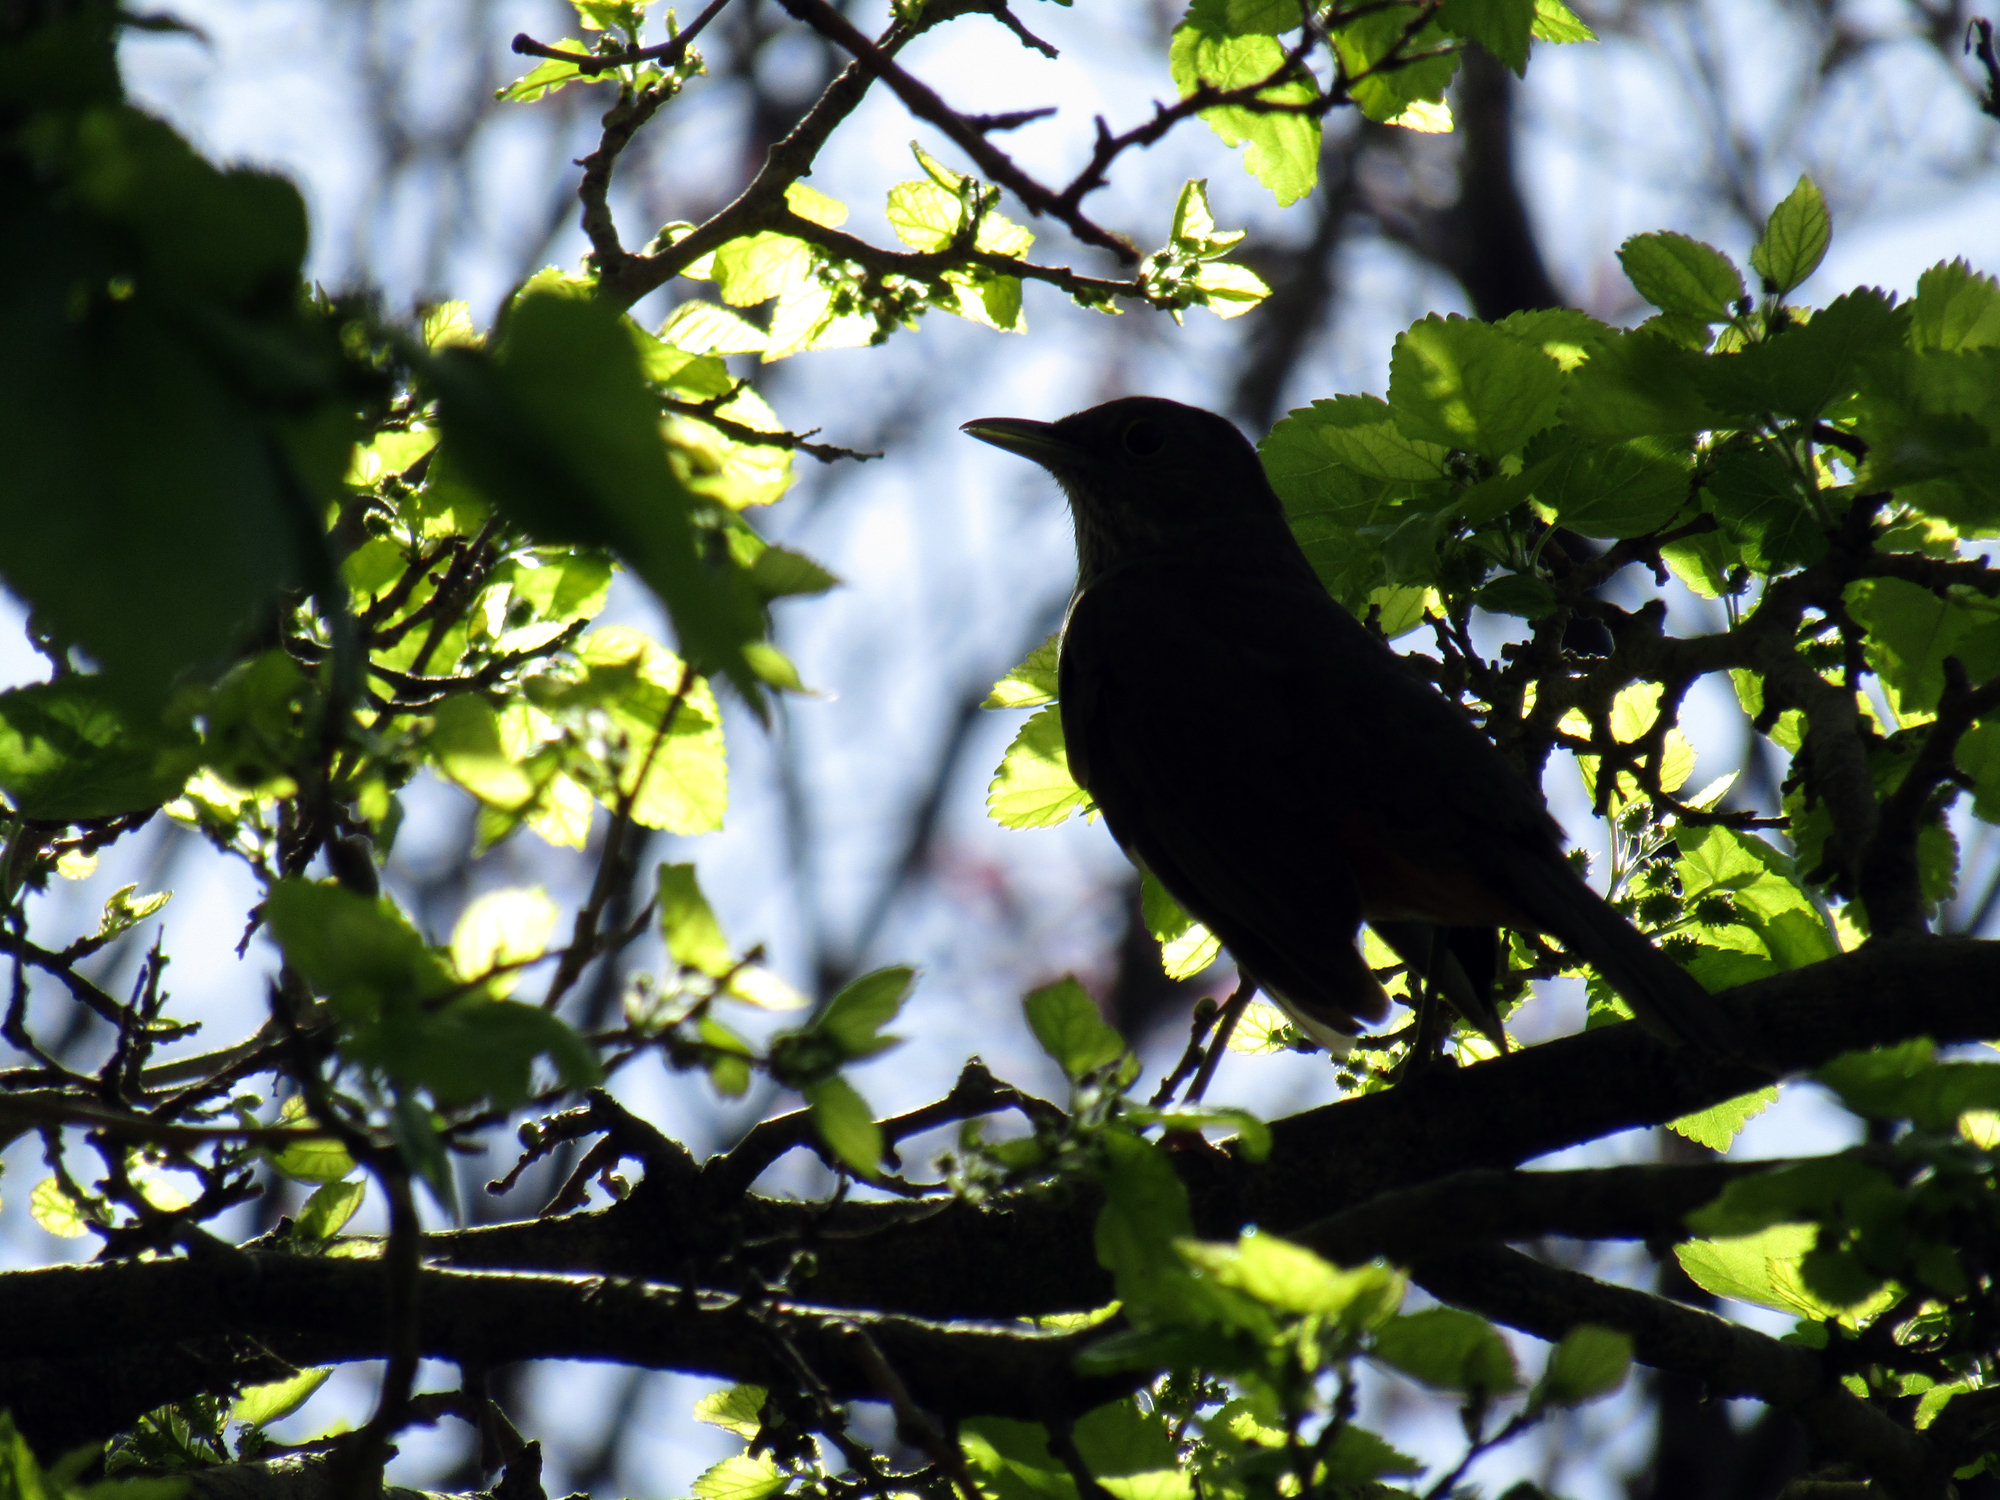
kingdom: Animalia
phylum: Chordata
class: Aves
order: Passeriformes
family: Turdidae
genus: Turdus
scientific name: Turdus rufiventris
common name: Rufous-bellied thrush
